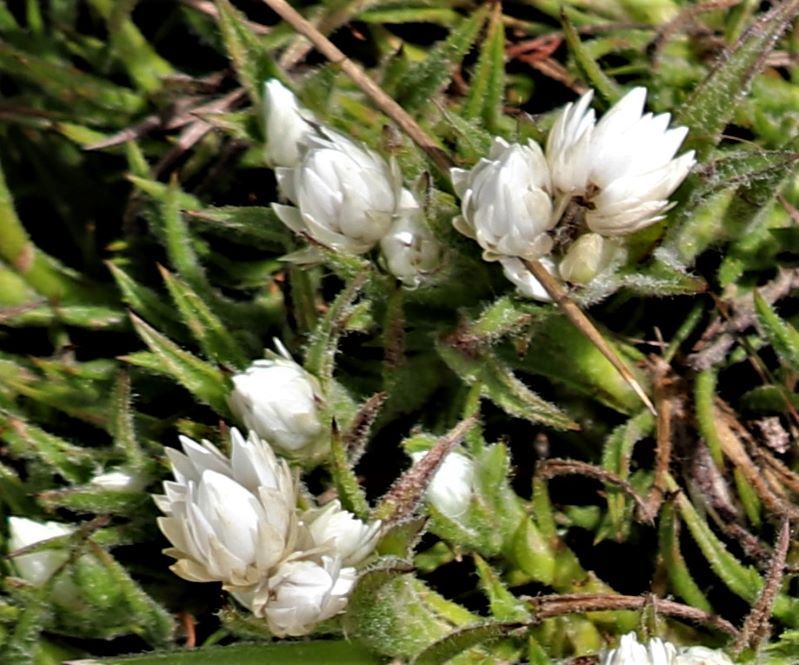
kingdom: Plantae
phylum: Tracheophyta
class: Magnoliopsida
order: Asterales
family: Asteraceae
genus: Achyranthemum
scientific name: Achyranthemum striatum
